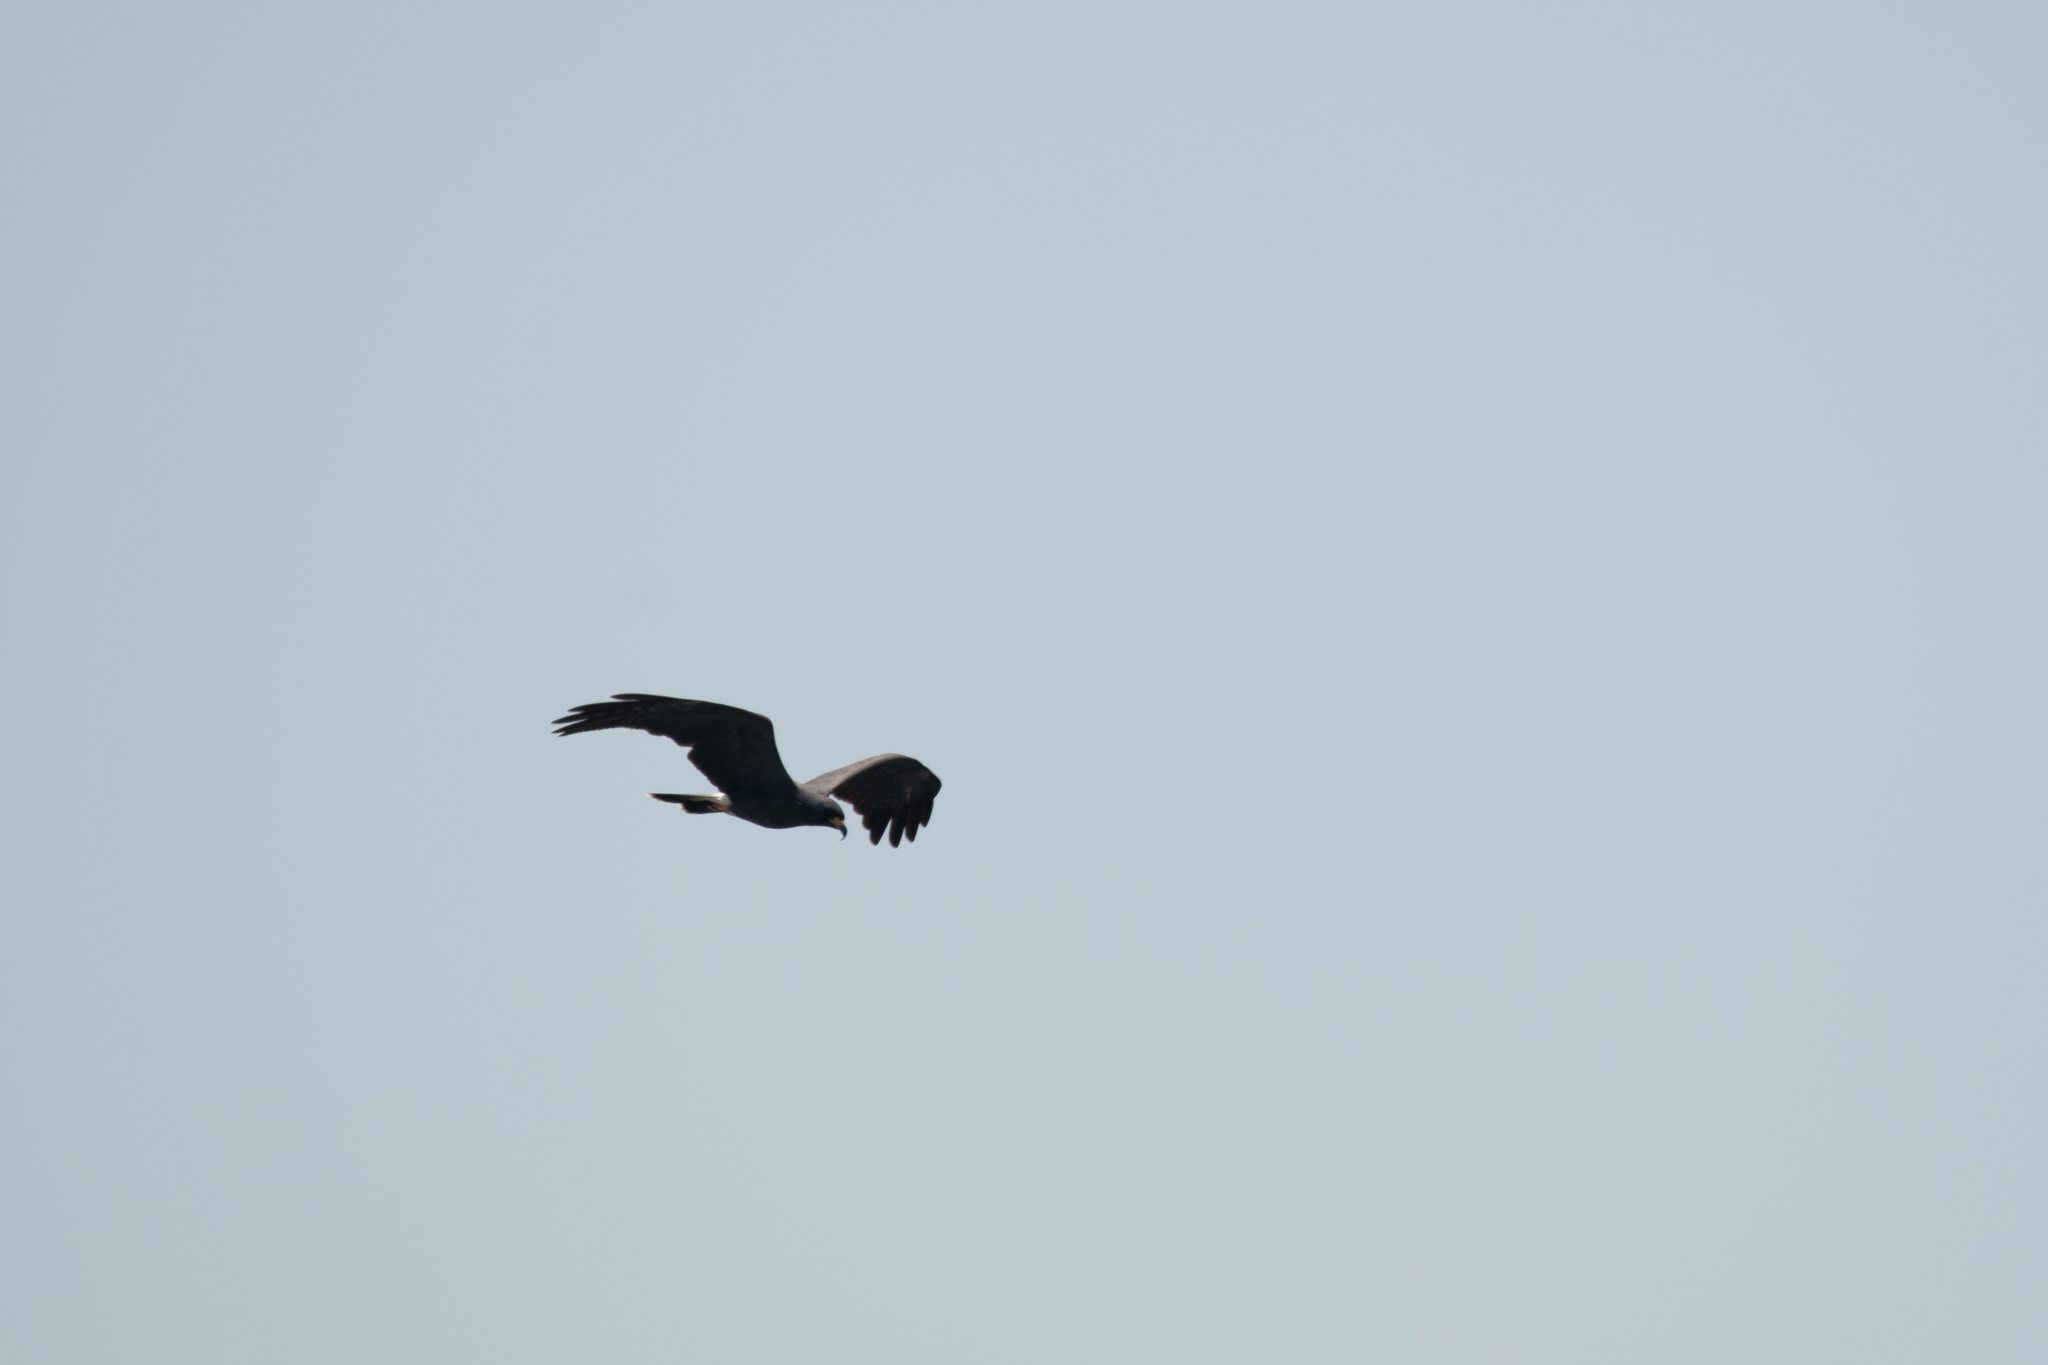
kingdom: Animalia
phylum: Chordata
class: Aves
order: Accipitriformes
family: Accipitridae
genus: Rostrhamus
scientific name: Rostrhamus sociabilis
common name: Snail kite
